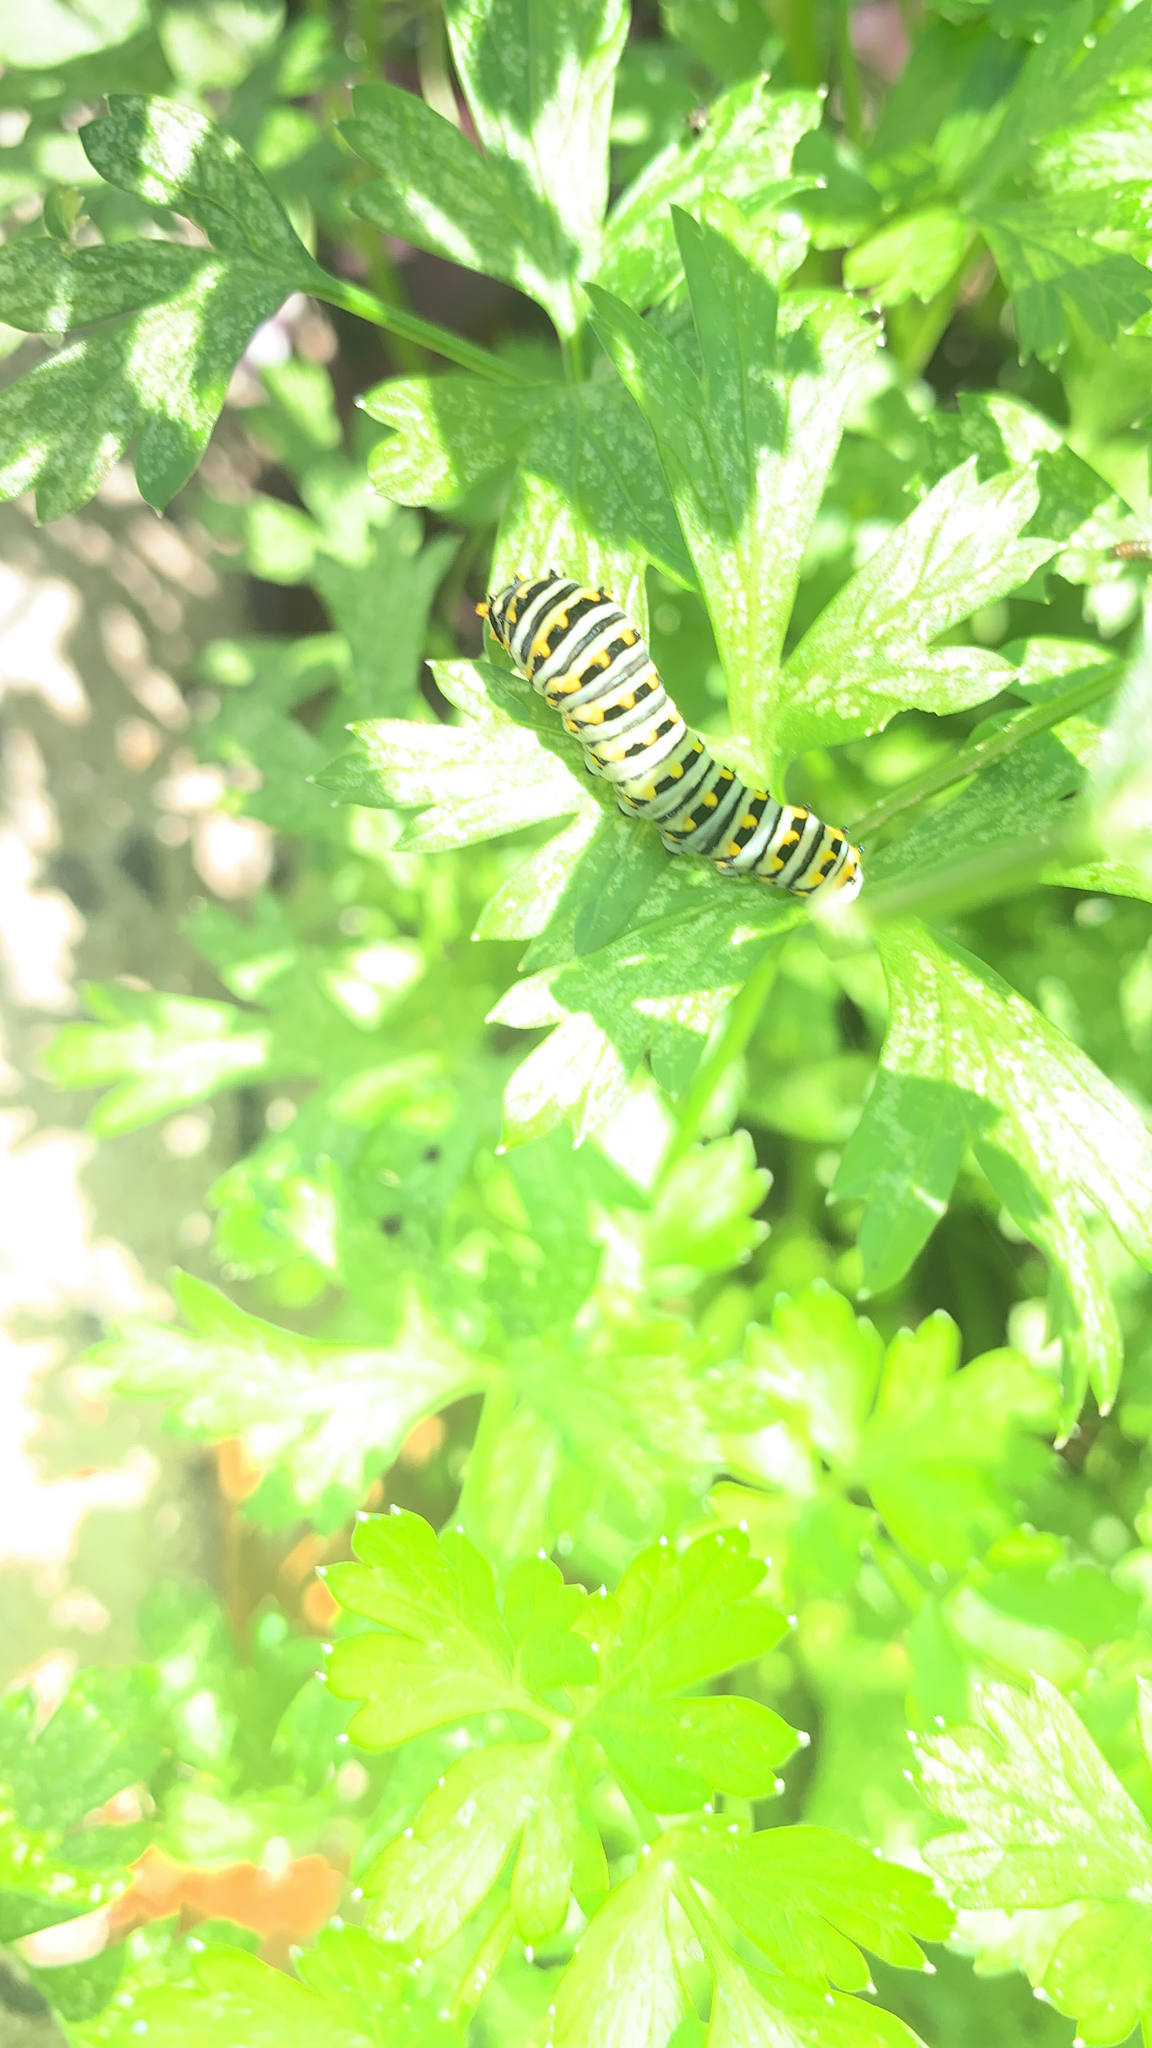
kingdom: Animalia
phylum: Arthropoda
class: Insecta
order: Lepidoptera
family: Papilionidae
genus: Papilio
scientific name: Papilio polyxenes
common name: Black swallowtail
